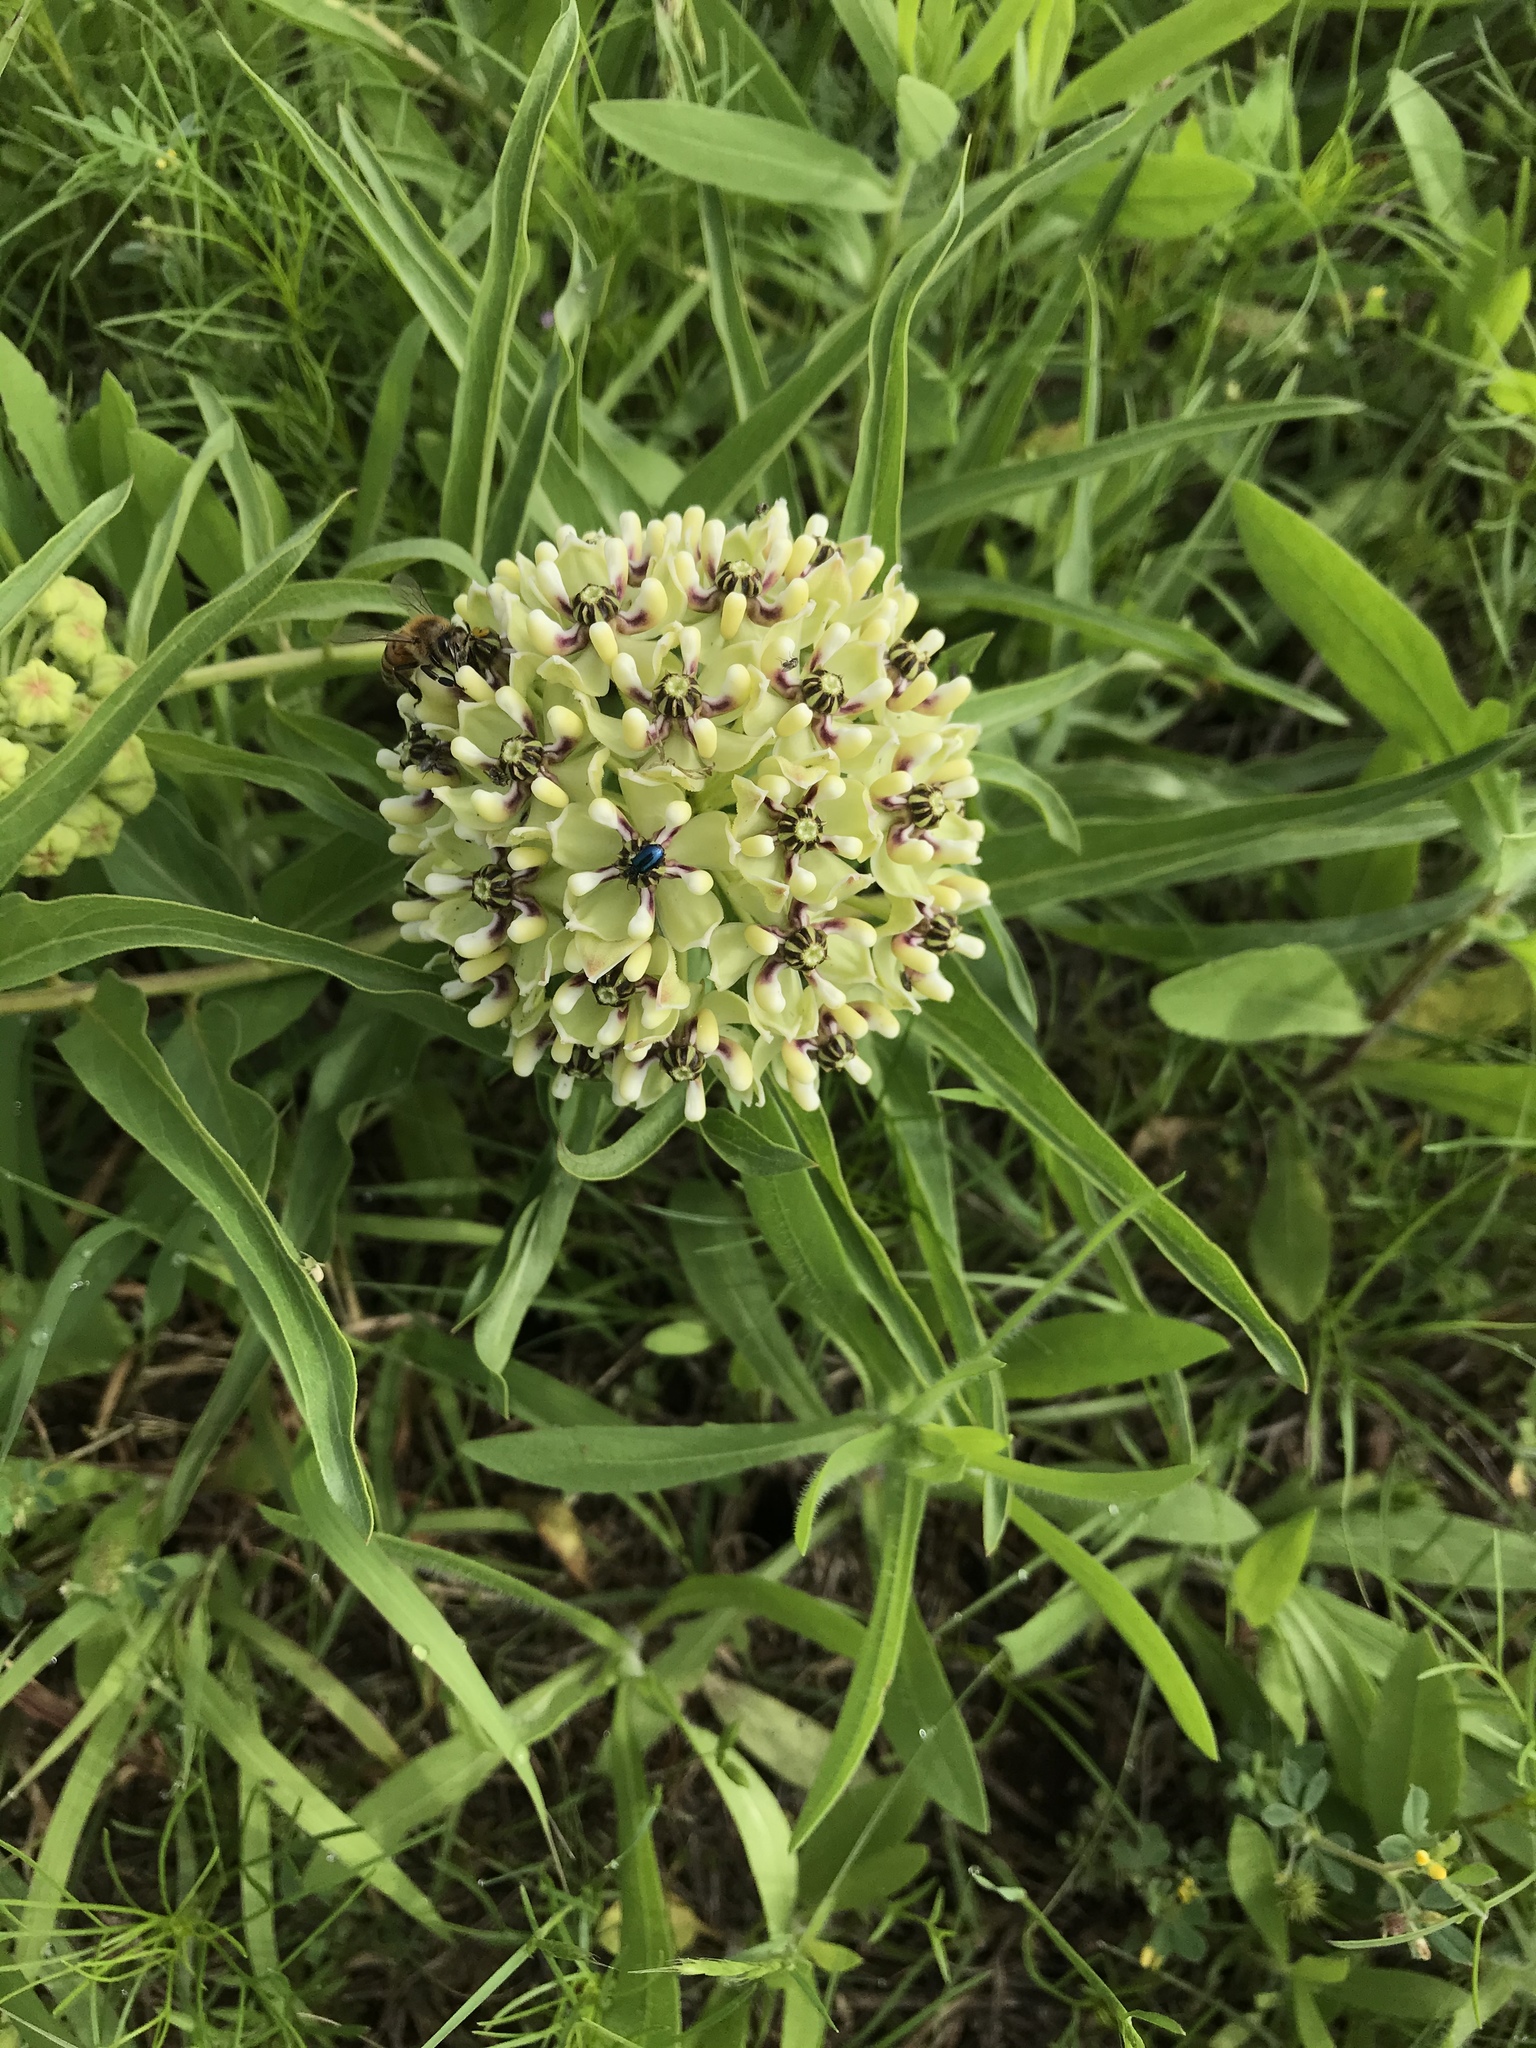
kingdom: Plantae
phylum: Tracheophyta
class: Magnoliopsida
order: Gentianales
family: Apocynaceae
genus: Asclepias
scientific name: Asclepias asperula
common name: Antelope horns
